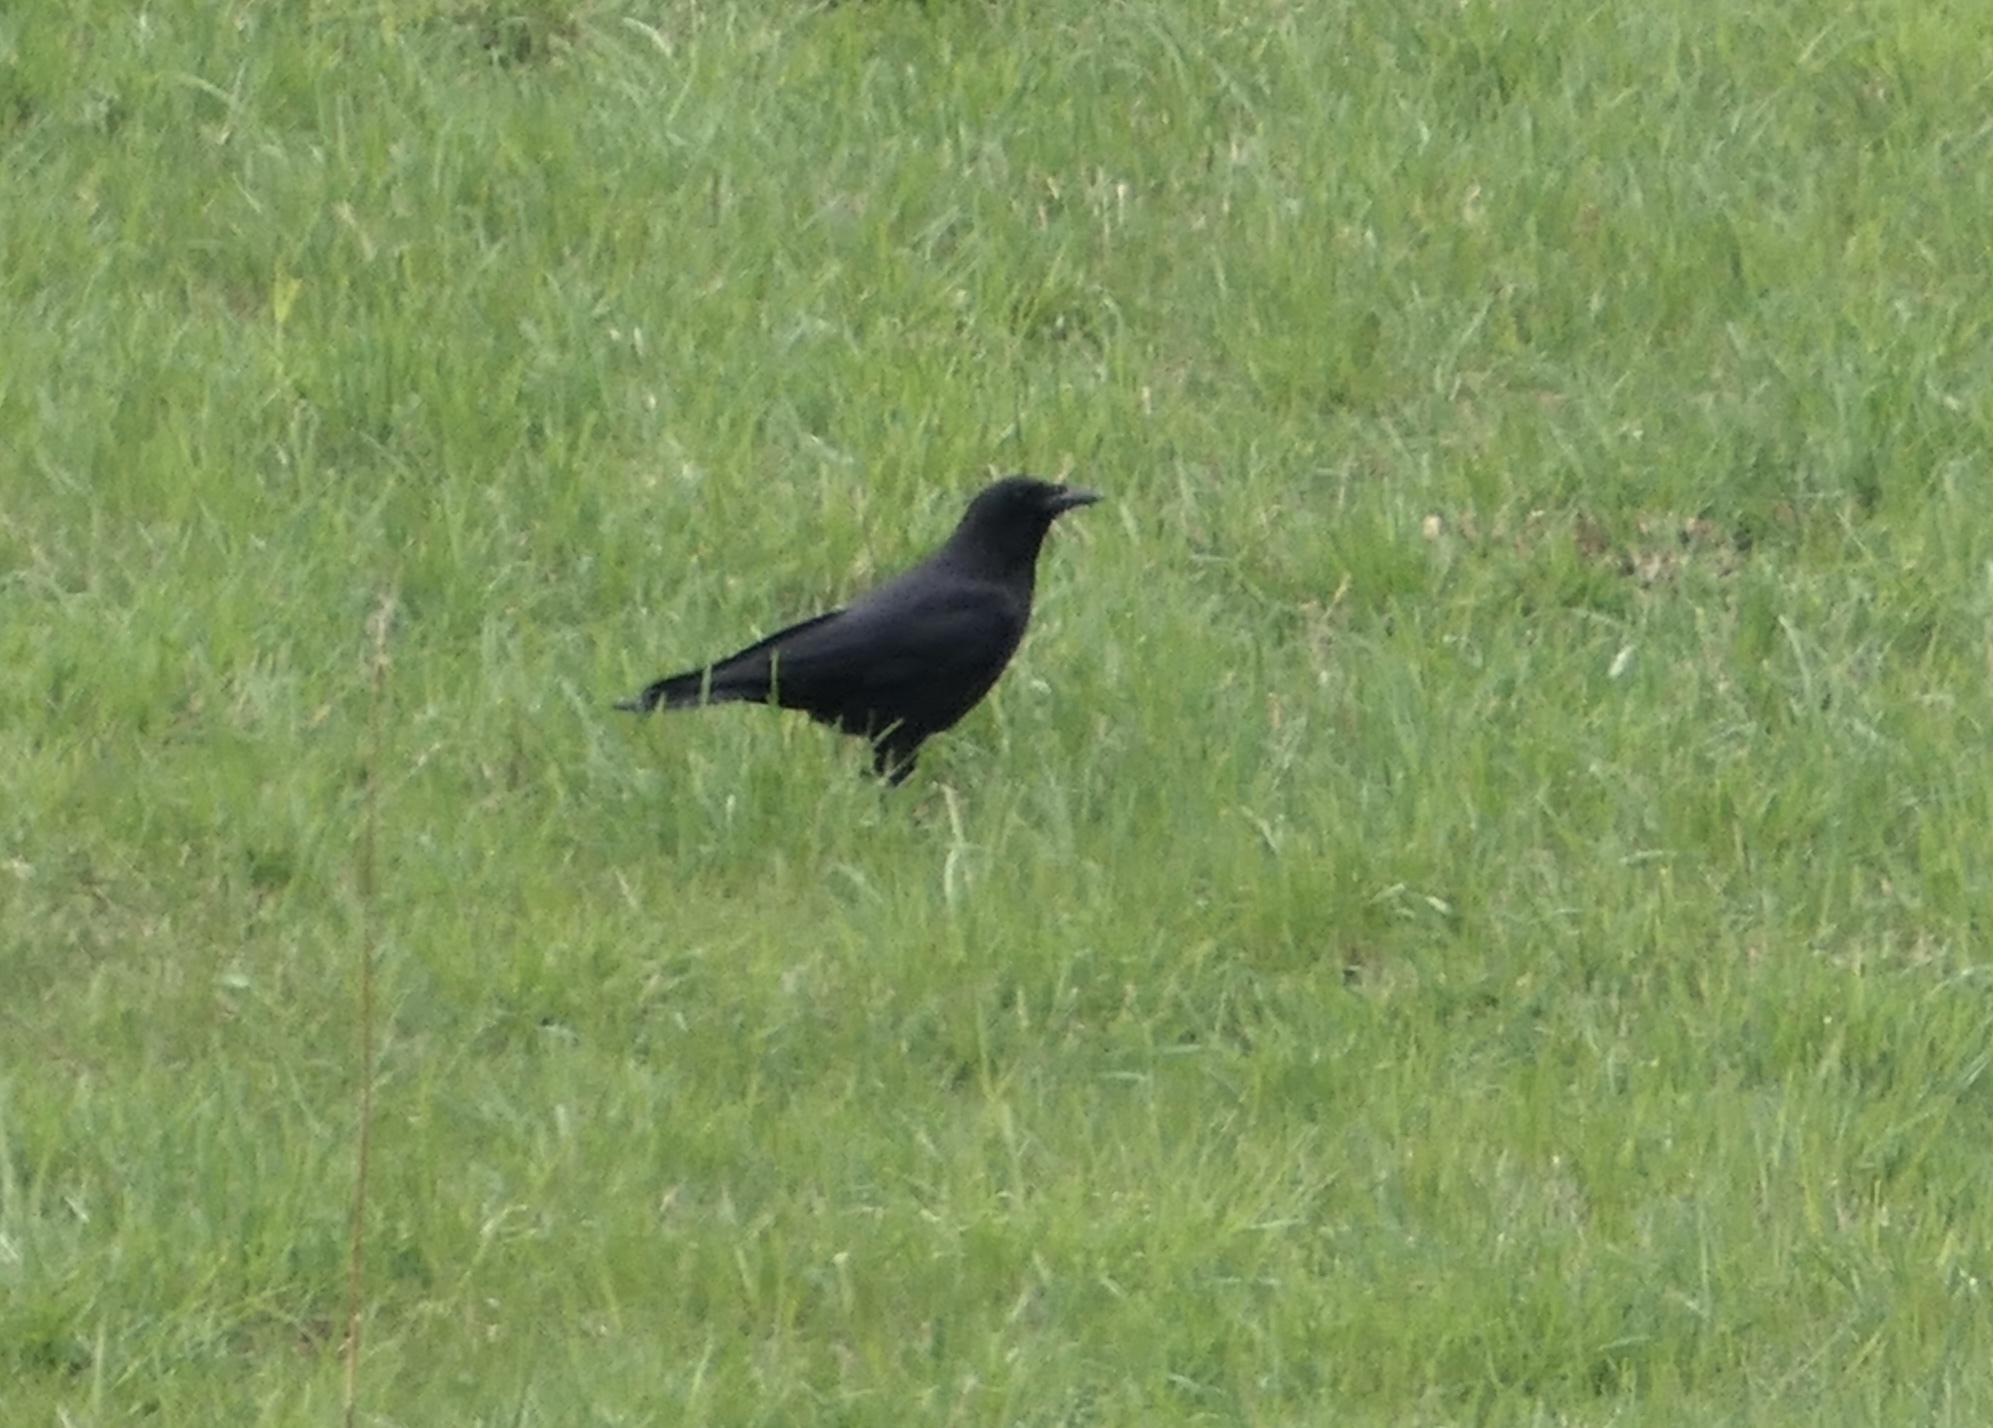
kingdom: Animalia
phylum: Chordata
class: Aves
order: Passeriformes
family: Corvidae
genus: Corvus
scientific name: Corvus brachyrhynchos
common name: American crow
